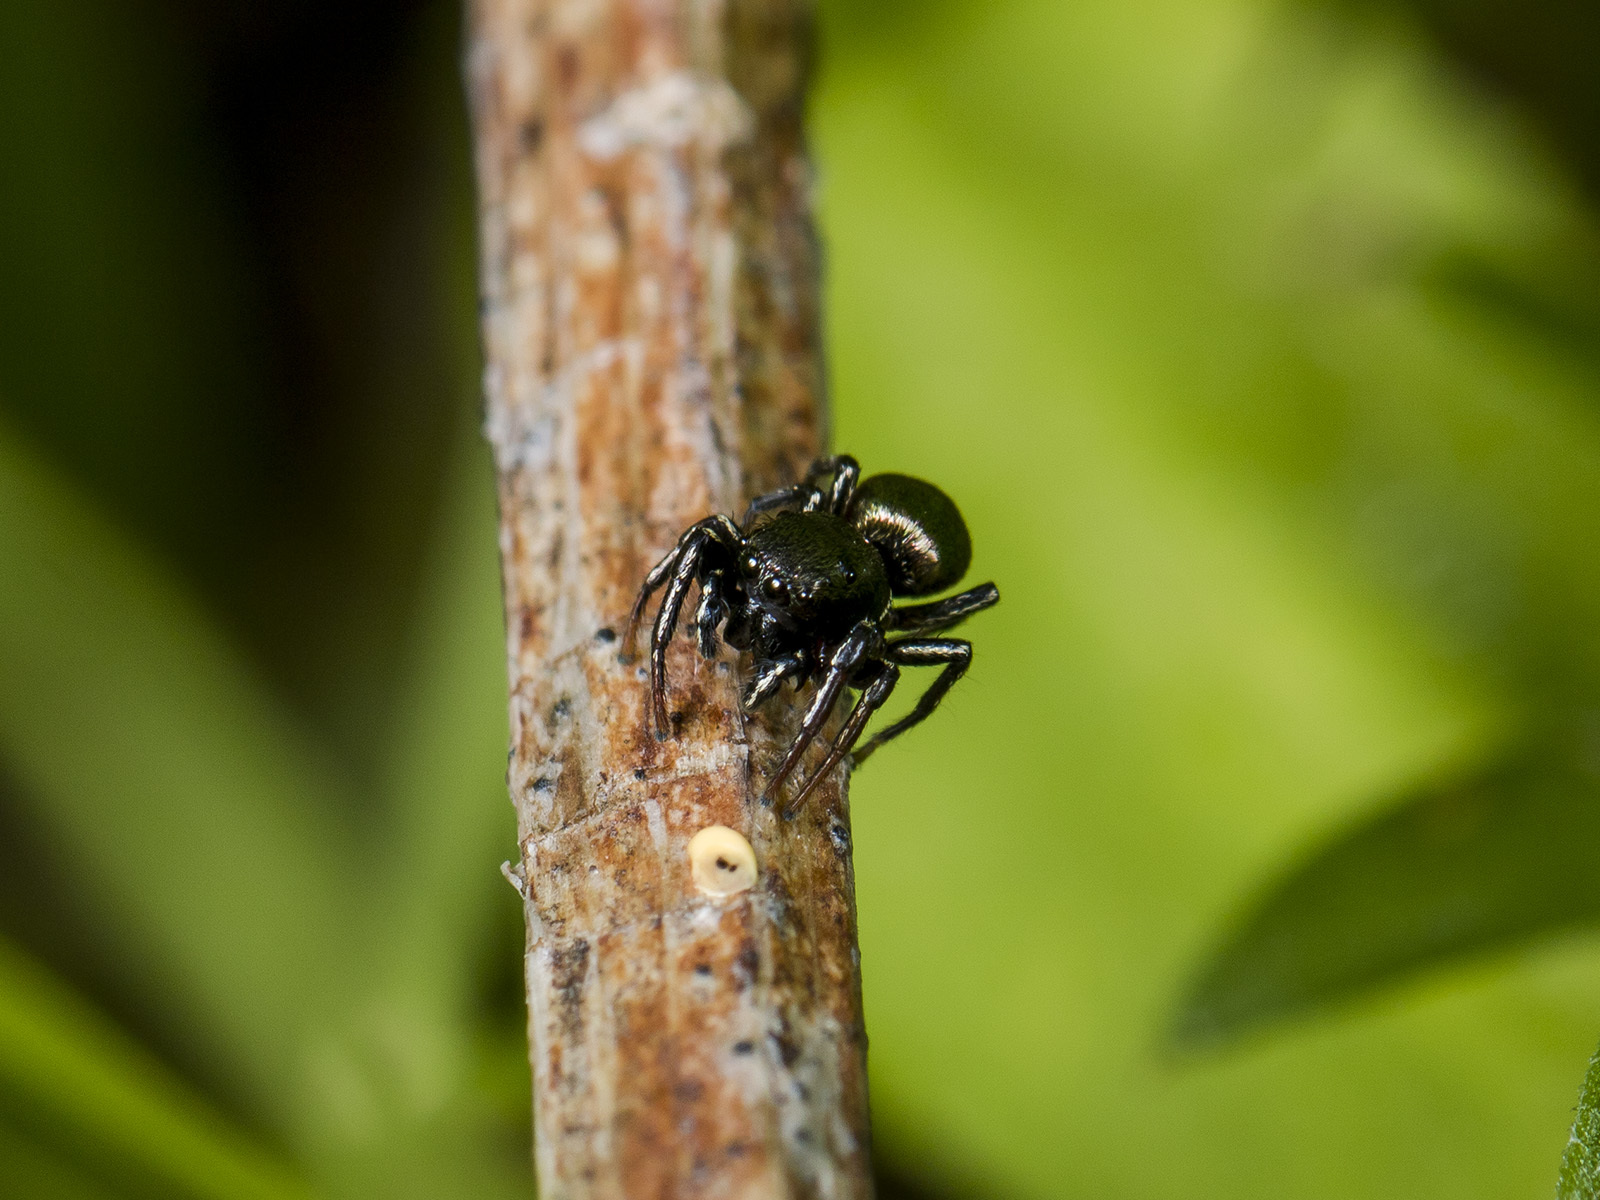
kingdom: Animalia
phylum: Arthropoda
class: Arachnida
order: Araneae
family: Salticidae
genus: Heliophanus
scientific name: Heliophanus auratus
